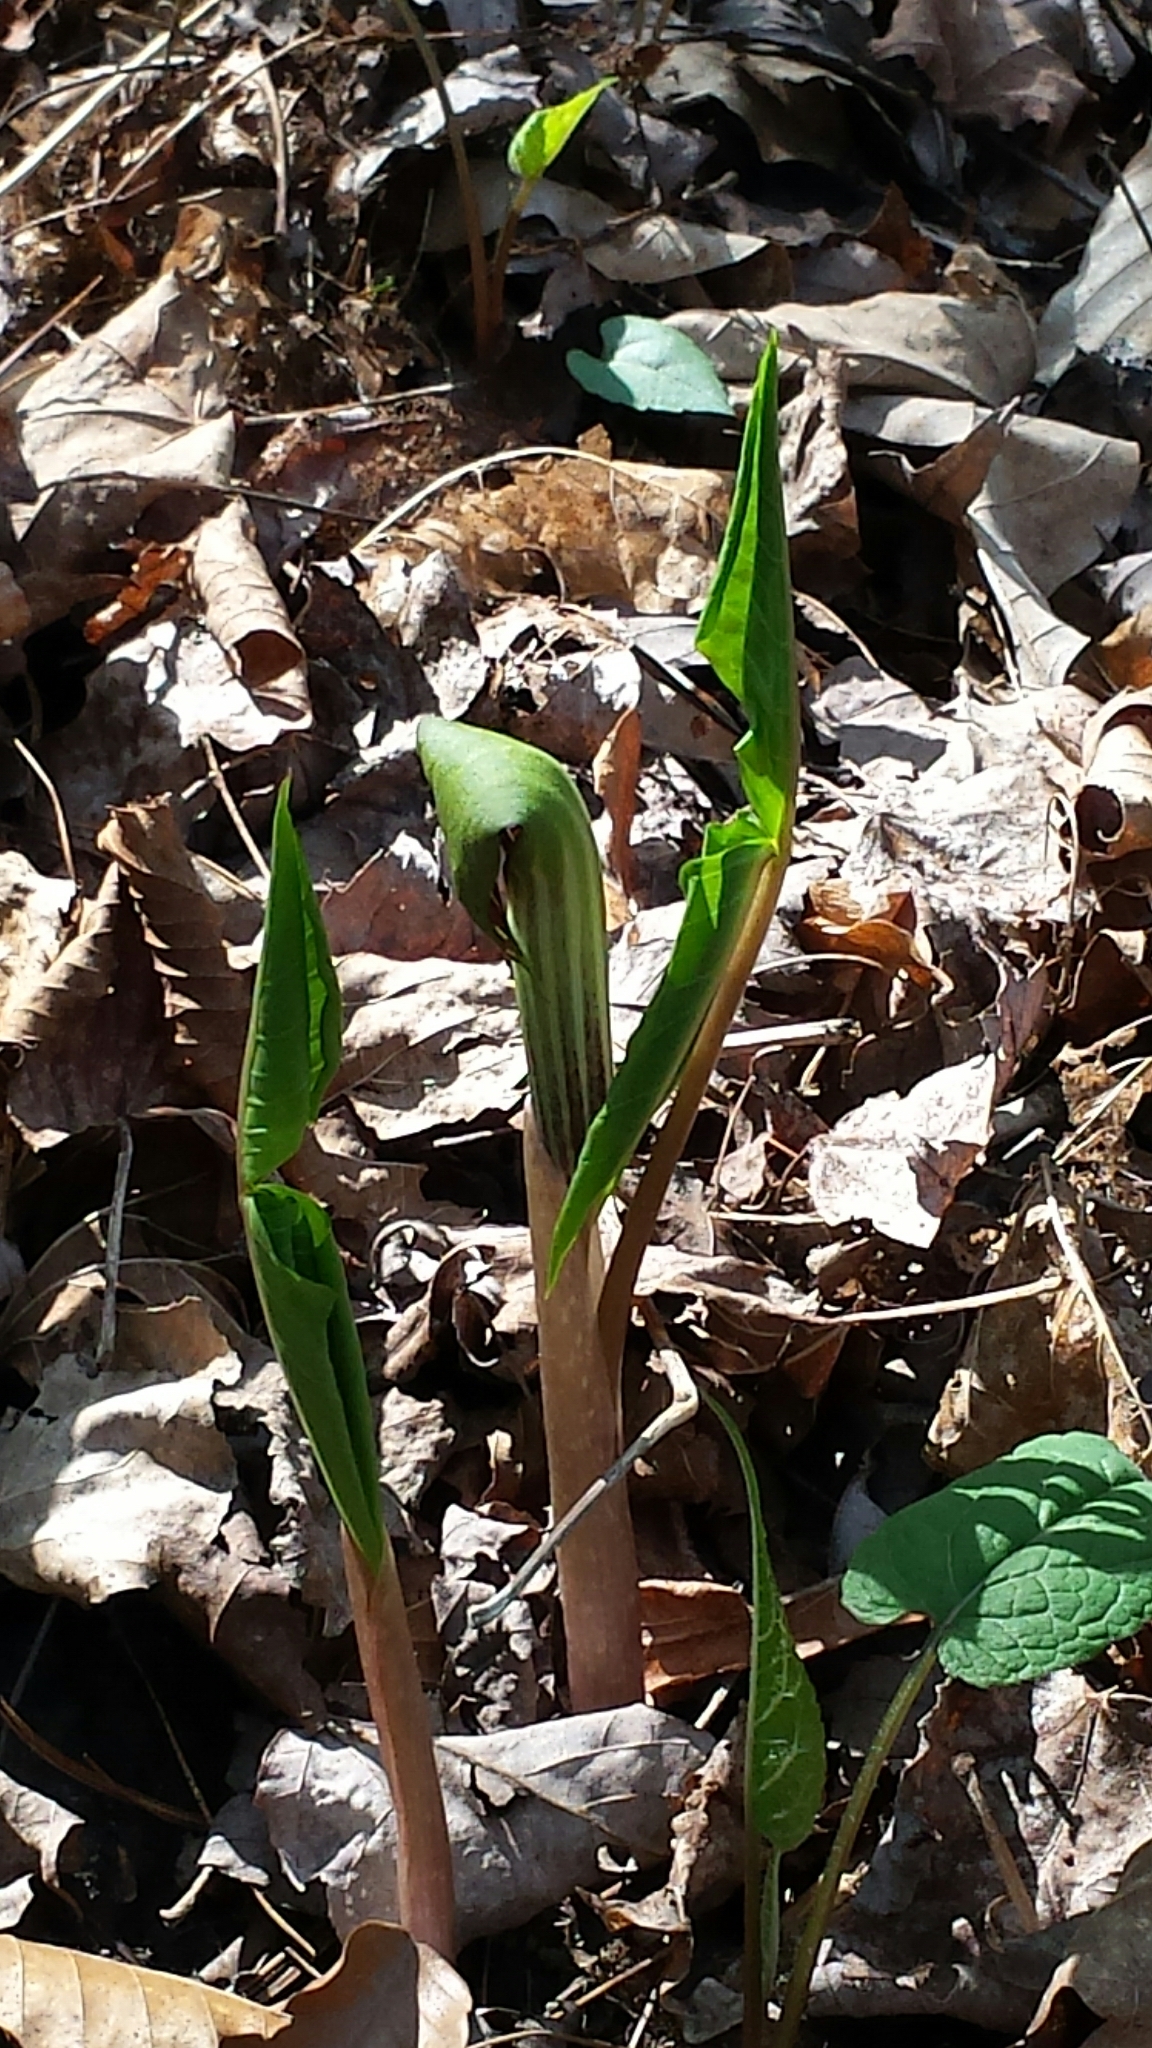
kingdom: Plantae
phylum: Tracheophyta
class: Liliopsida
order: Alismatales
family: Araceae
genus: Arisaema
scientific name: Arisaema triphyllum
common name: Jack-in-the-pulpit
